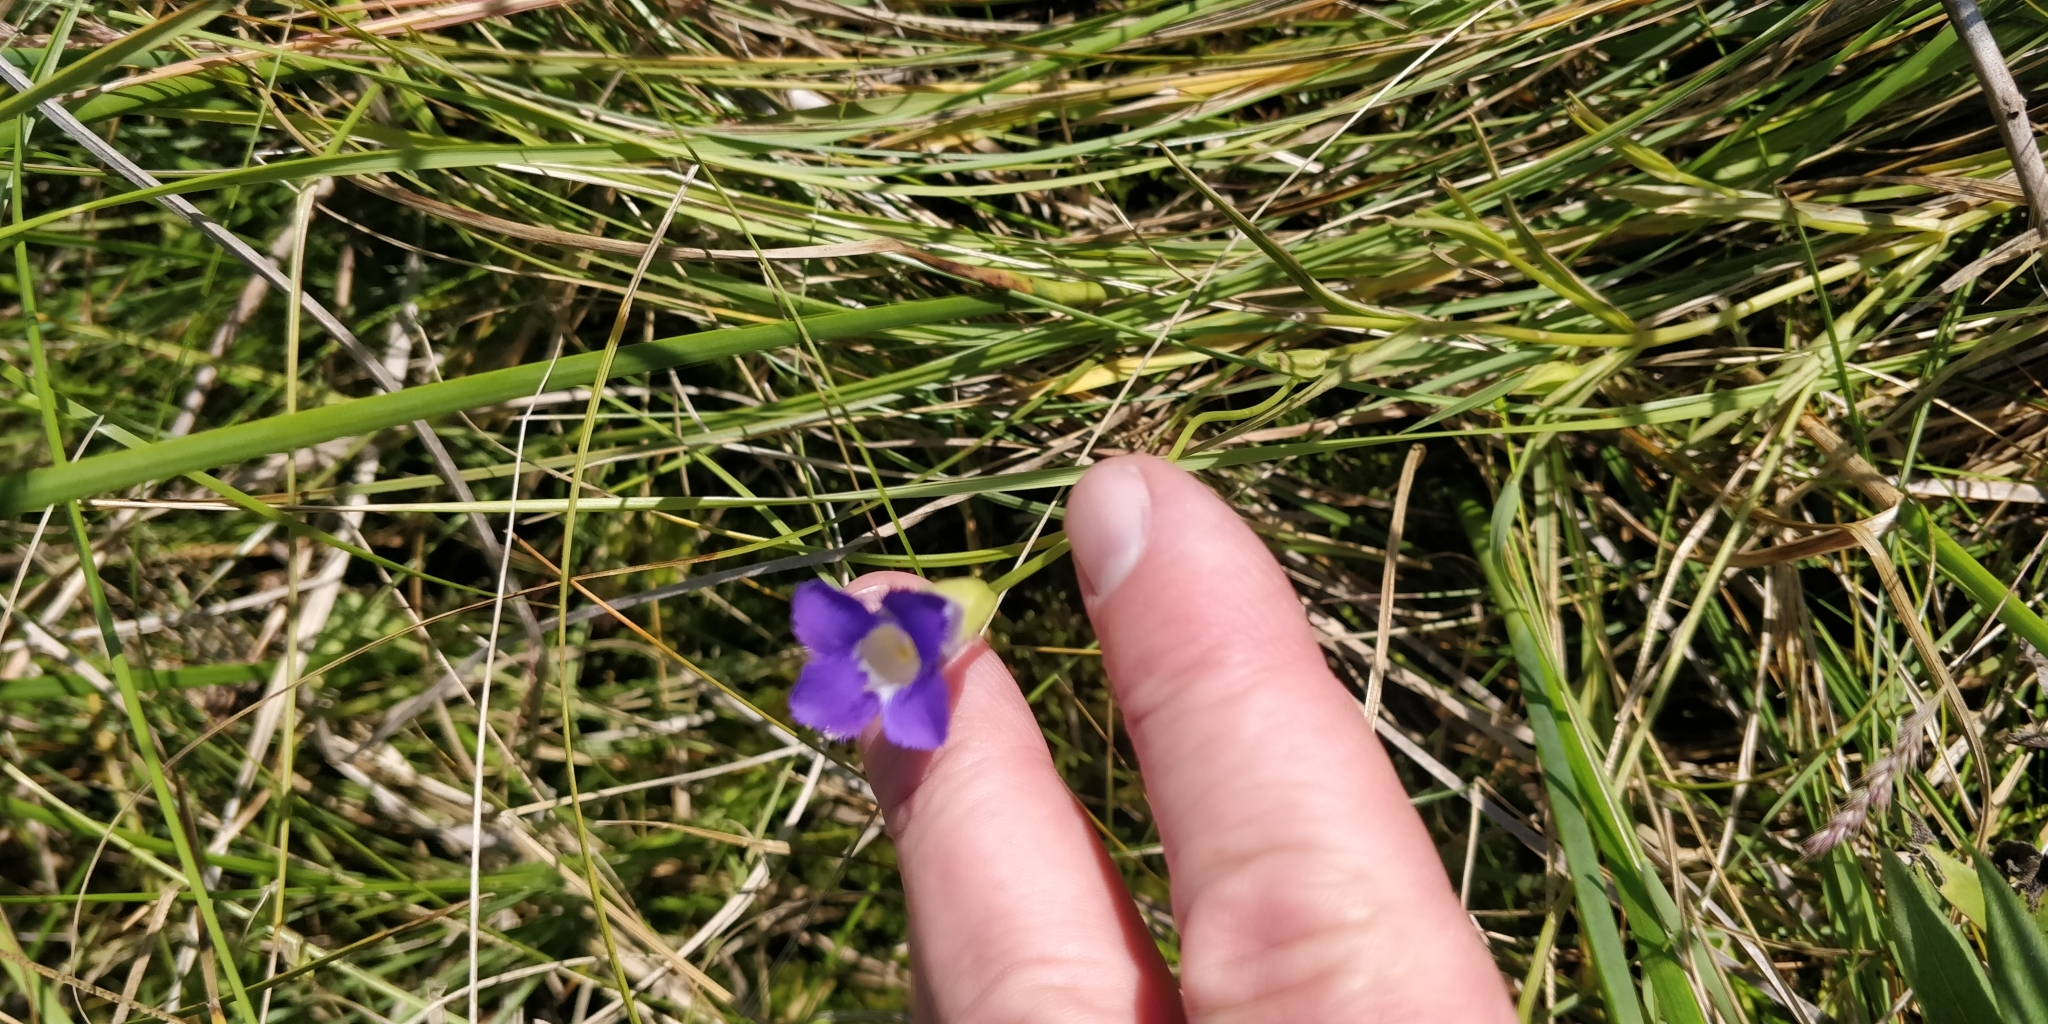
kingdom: Plantae
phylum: Tracheophyta
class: Magnoliopsida
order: Gentianales
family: Gentianaceae
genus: Gentianopsis
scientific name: Gentianopsis virgata
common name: Lesser fringed-gentian
